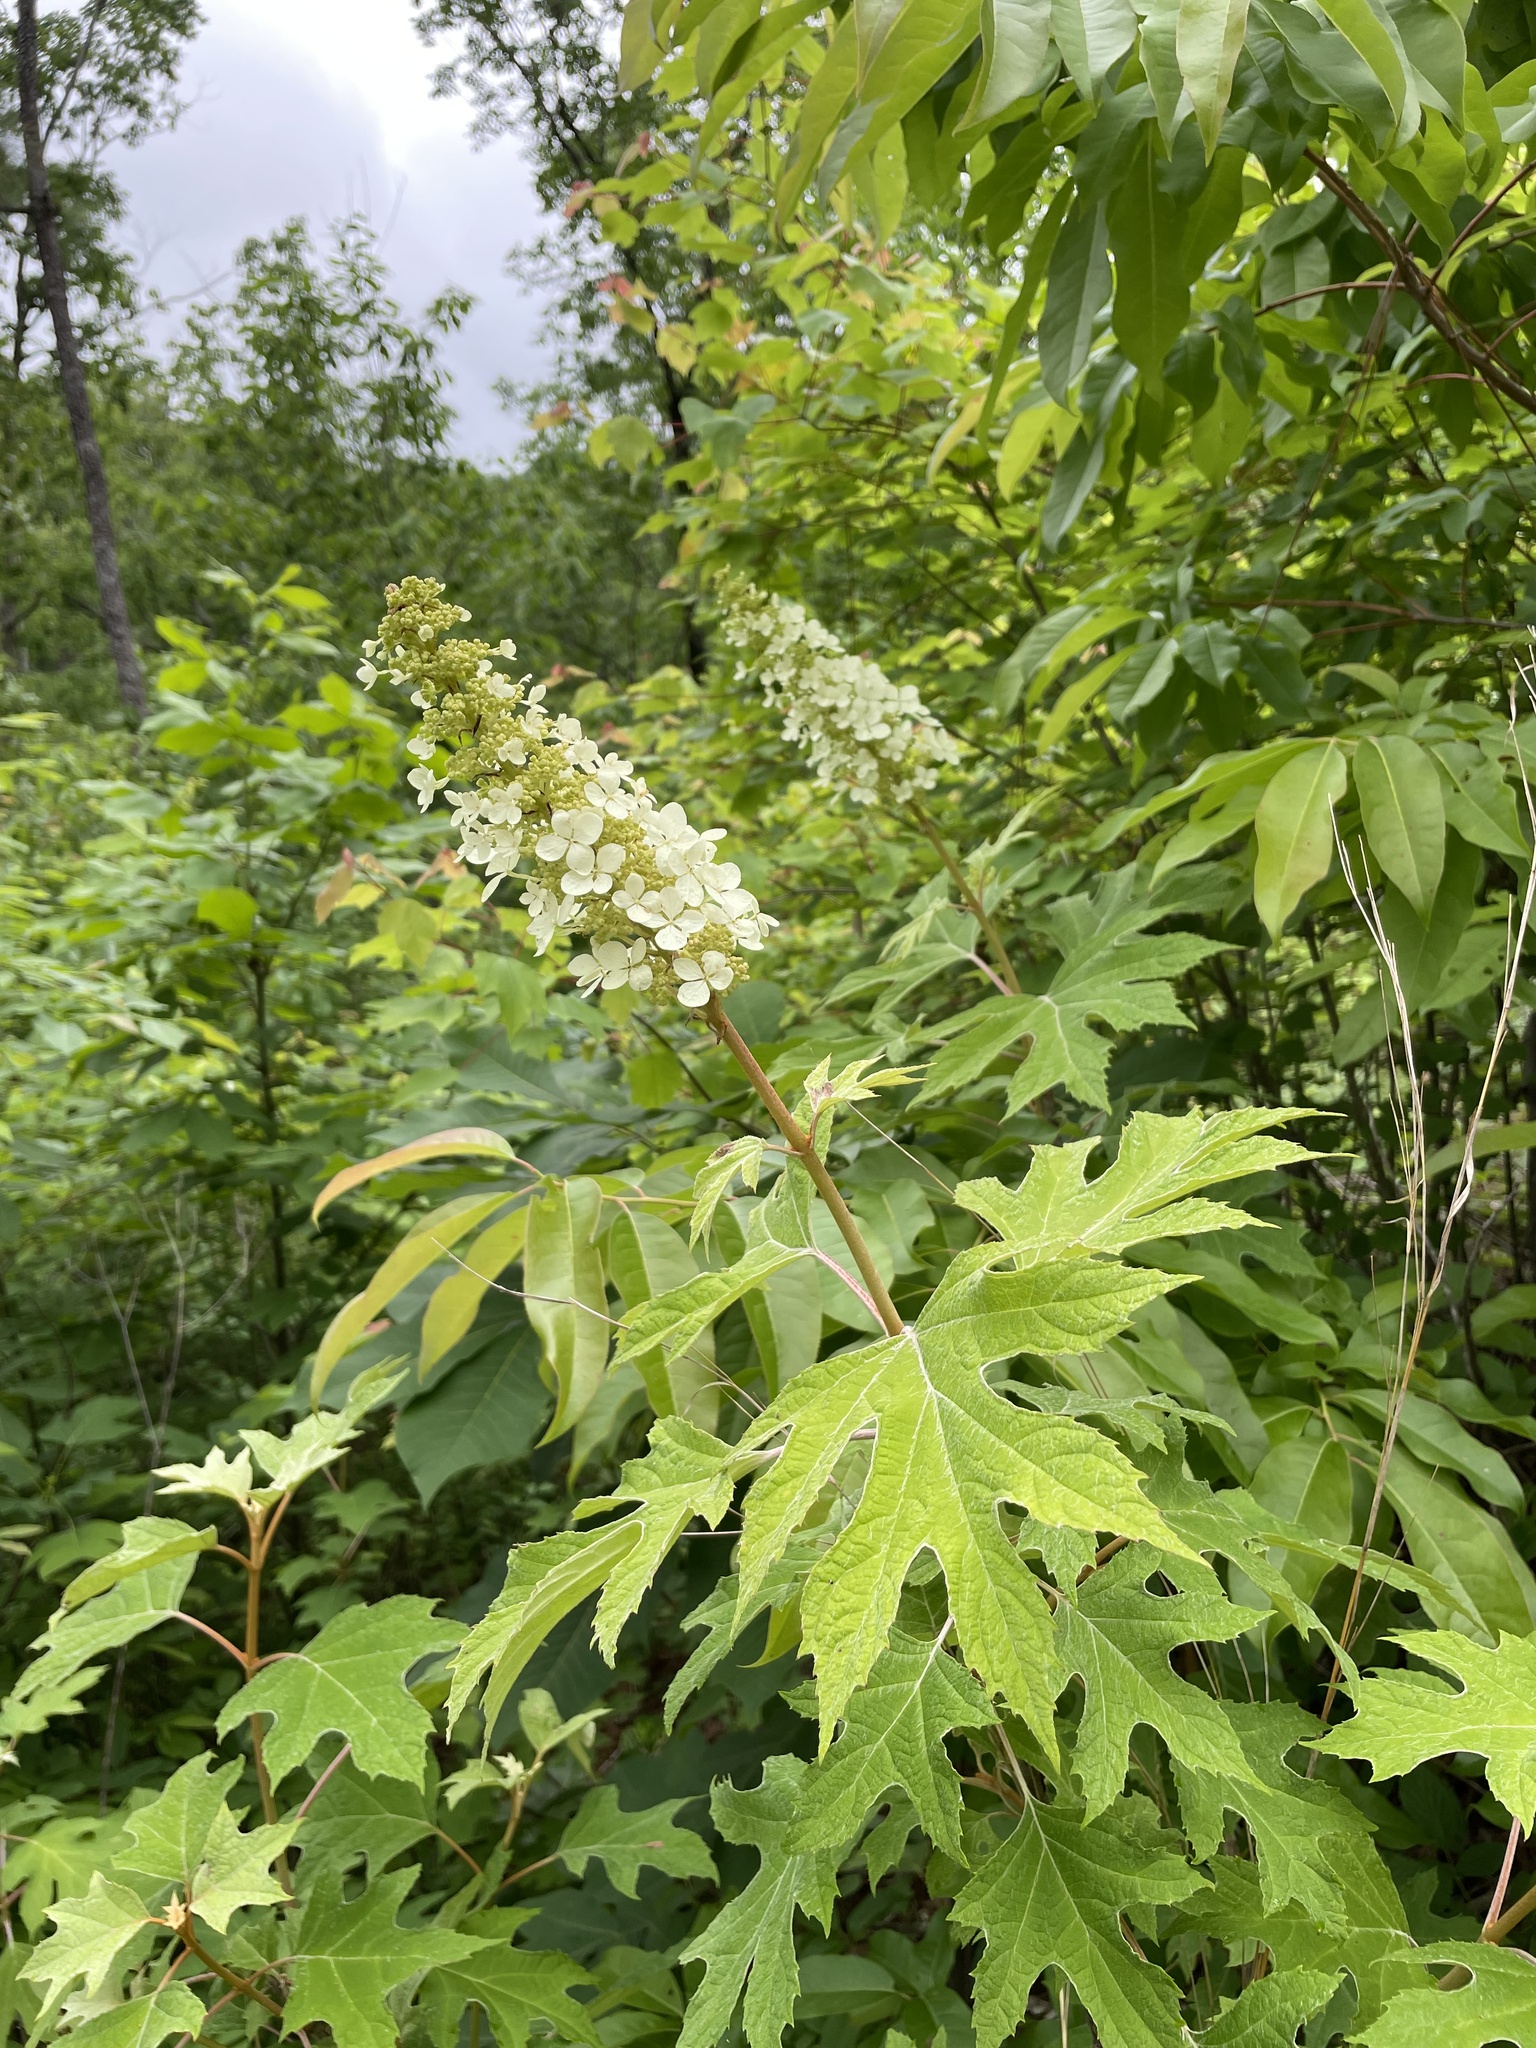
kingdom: Plantae
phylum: Tracheophyta
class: Magnoliopsida
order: Cornales
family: Hydrangeaceae
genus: Hydrangea
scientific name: Hydrangea quercifolia
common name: Oak-leaf hydrangea
